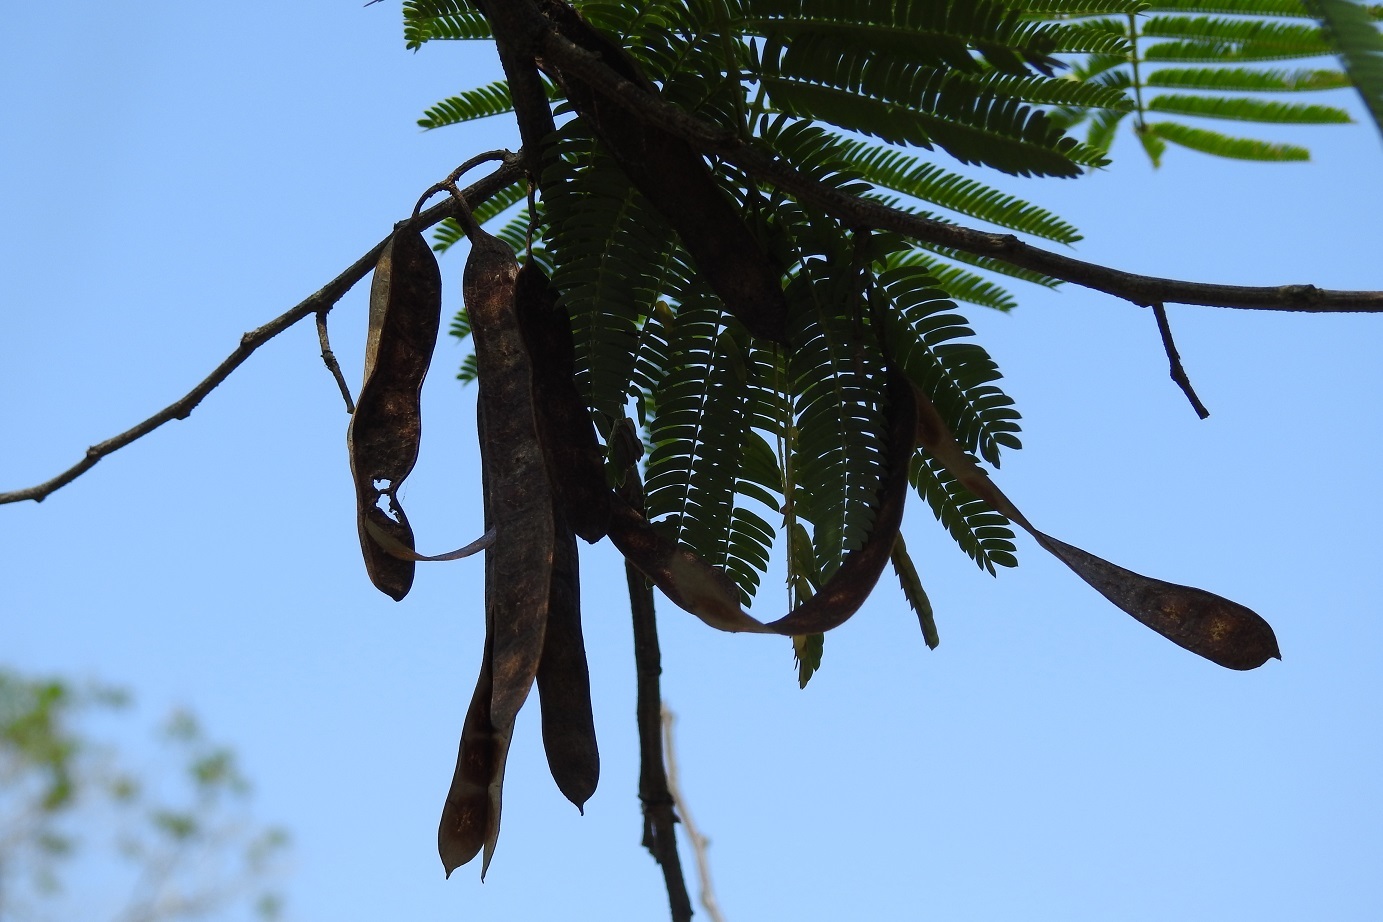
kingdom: Plantae
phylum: Tracheophyta
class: Magnoliopsida
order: Fabales
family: Fabaceae
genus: Leucaena
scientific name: Leucaena cuspidata
